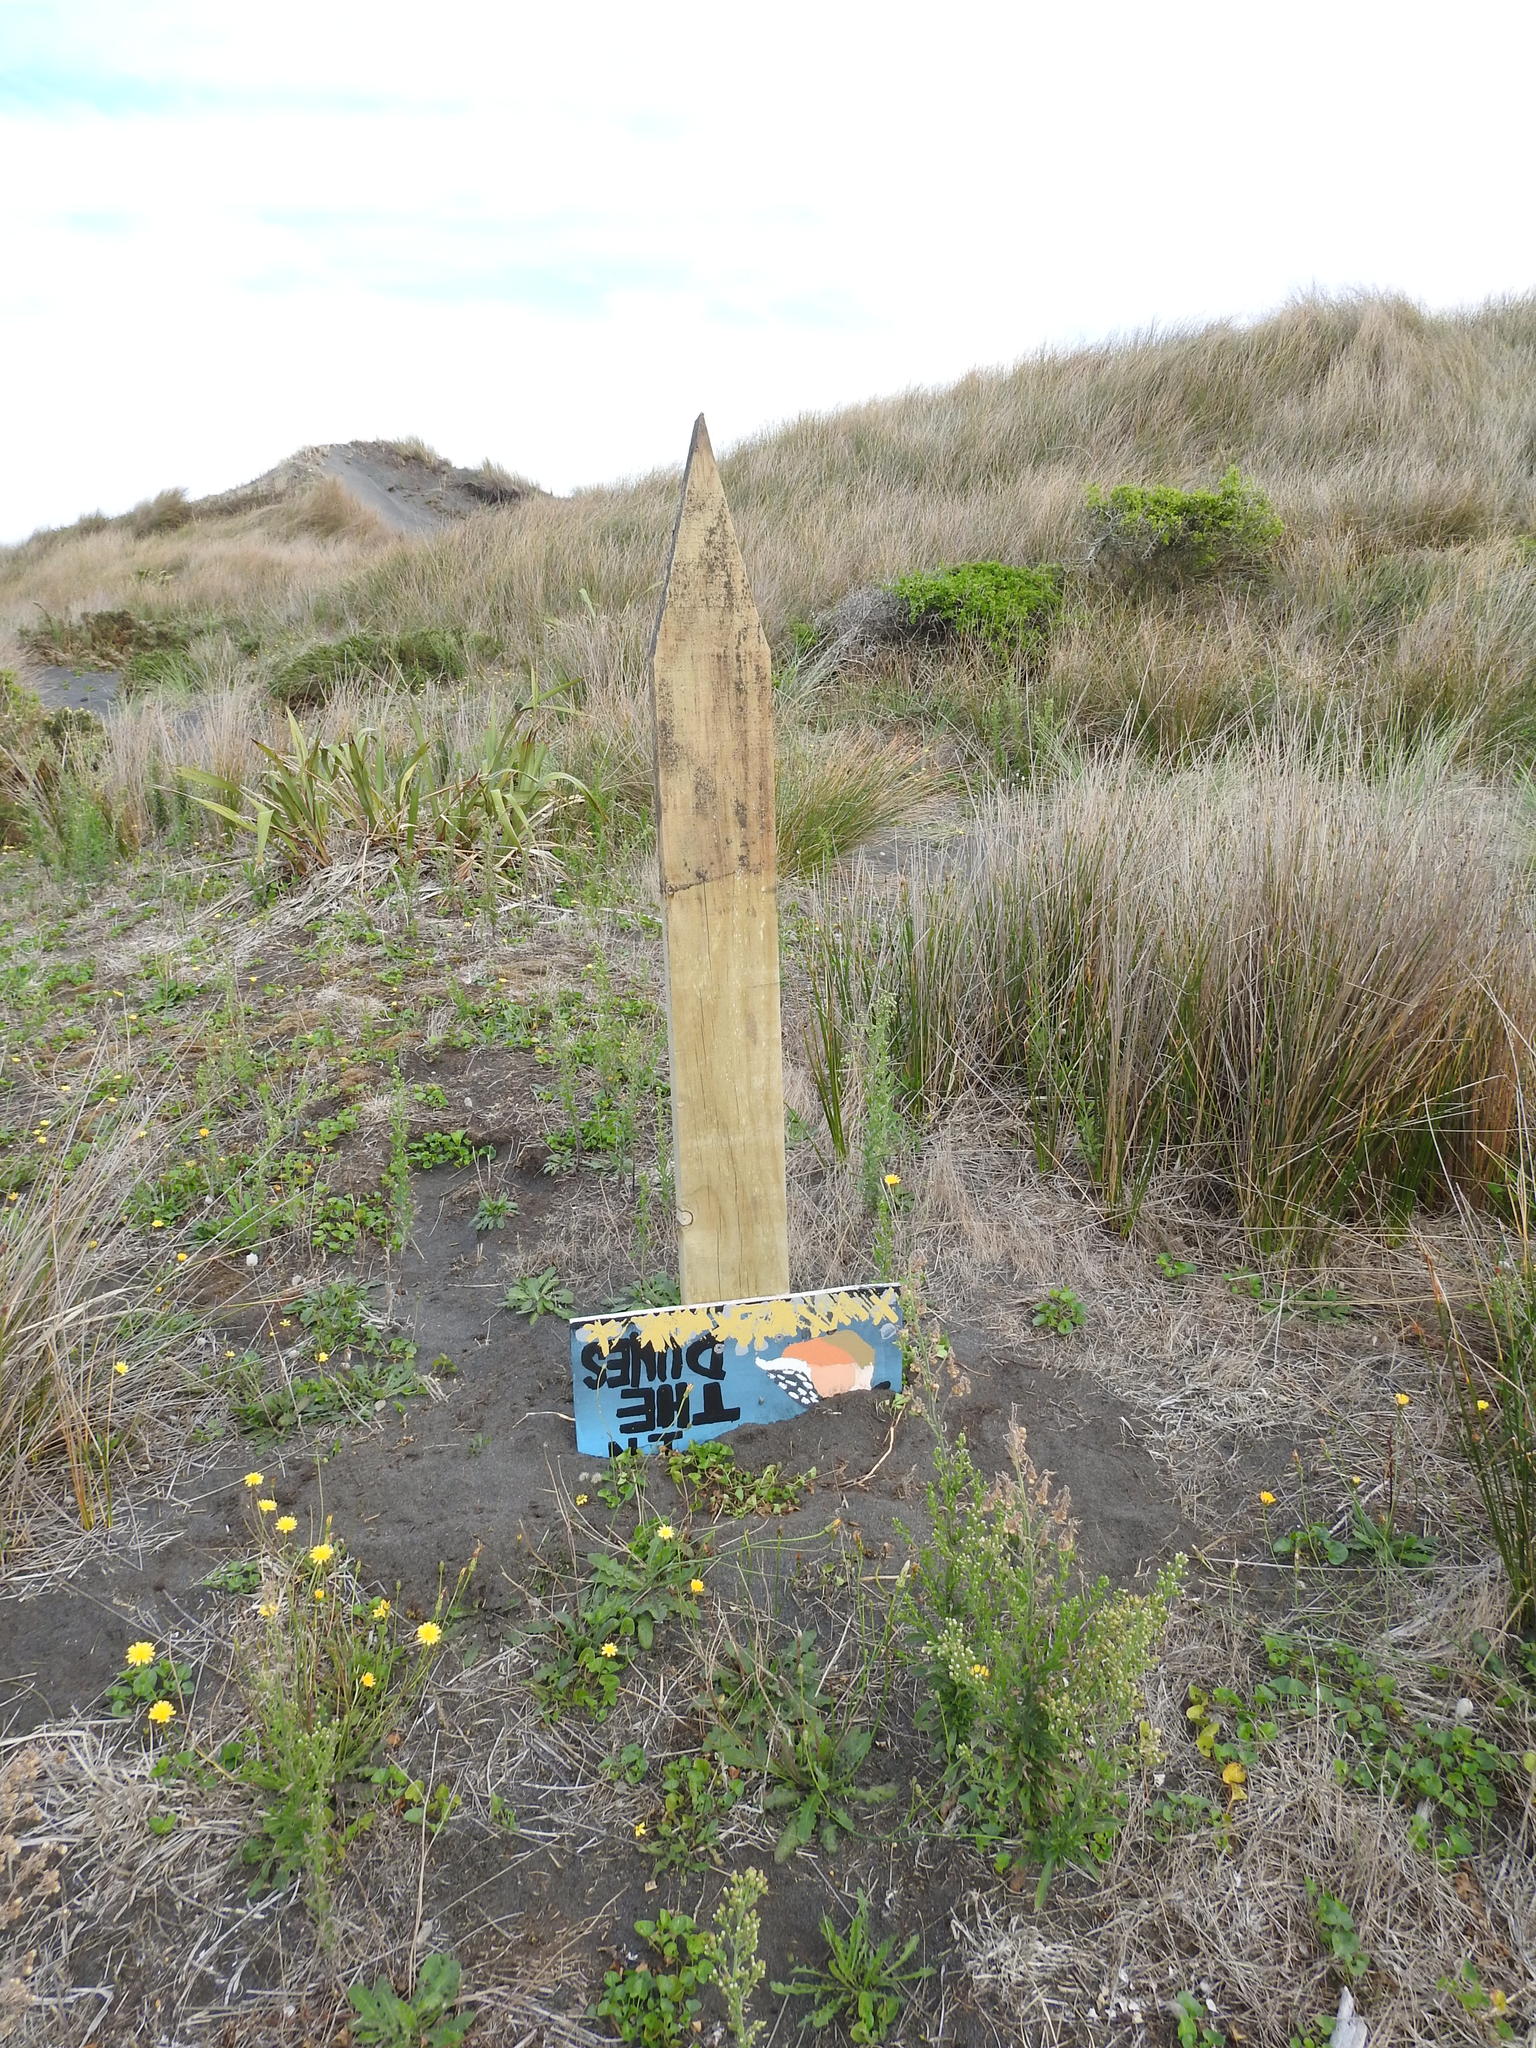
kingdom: Animalia
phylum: Chordata
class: Aves
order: Charadriiformes
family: Charadriidae
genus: Anarhynchus
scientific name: Anarhynchus
